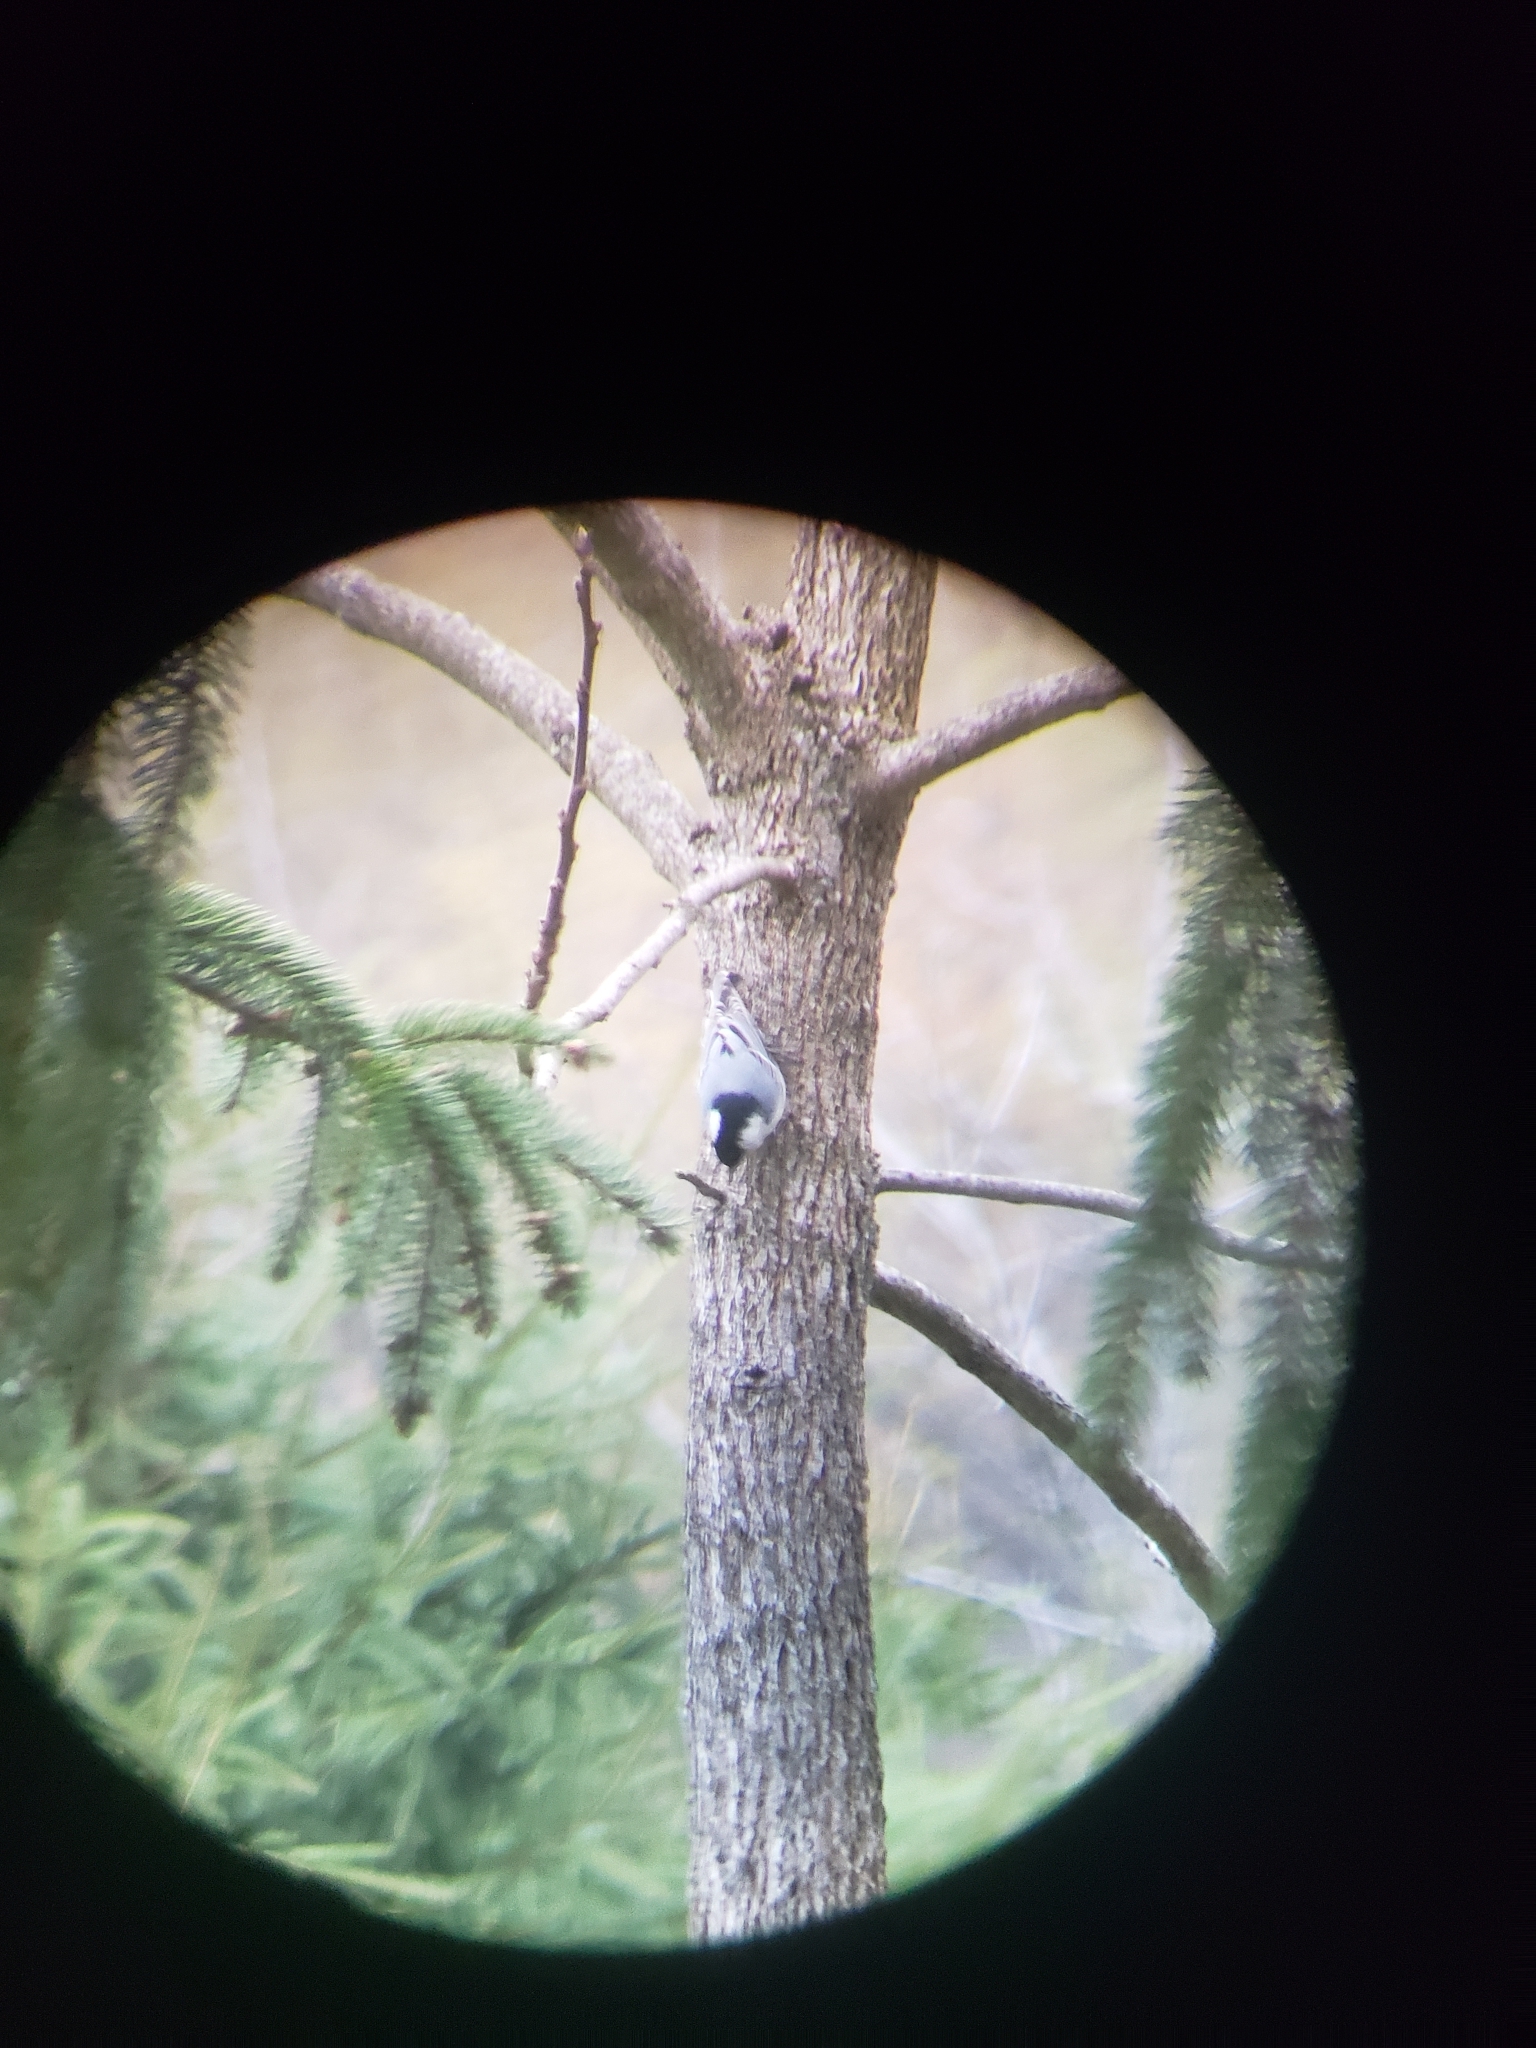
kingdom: Animalia
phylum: Chordata
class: Aves
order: Passeriformes
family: Sittidae
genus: Sitta
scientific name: Sitta carolinensis
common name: White-breasted nuthatch
